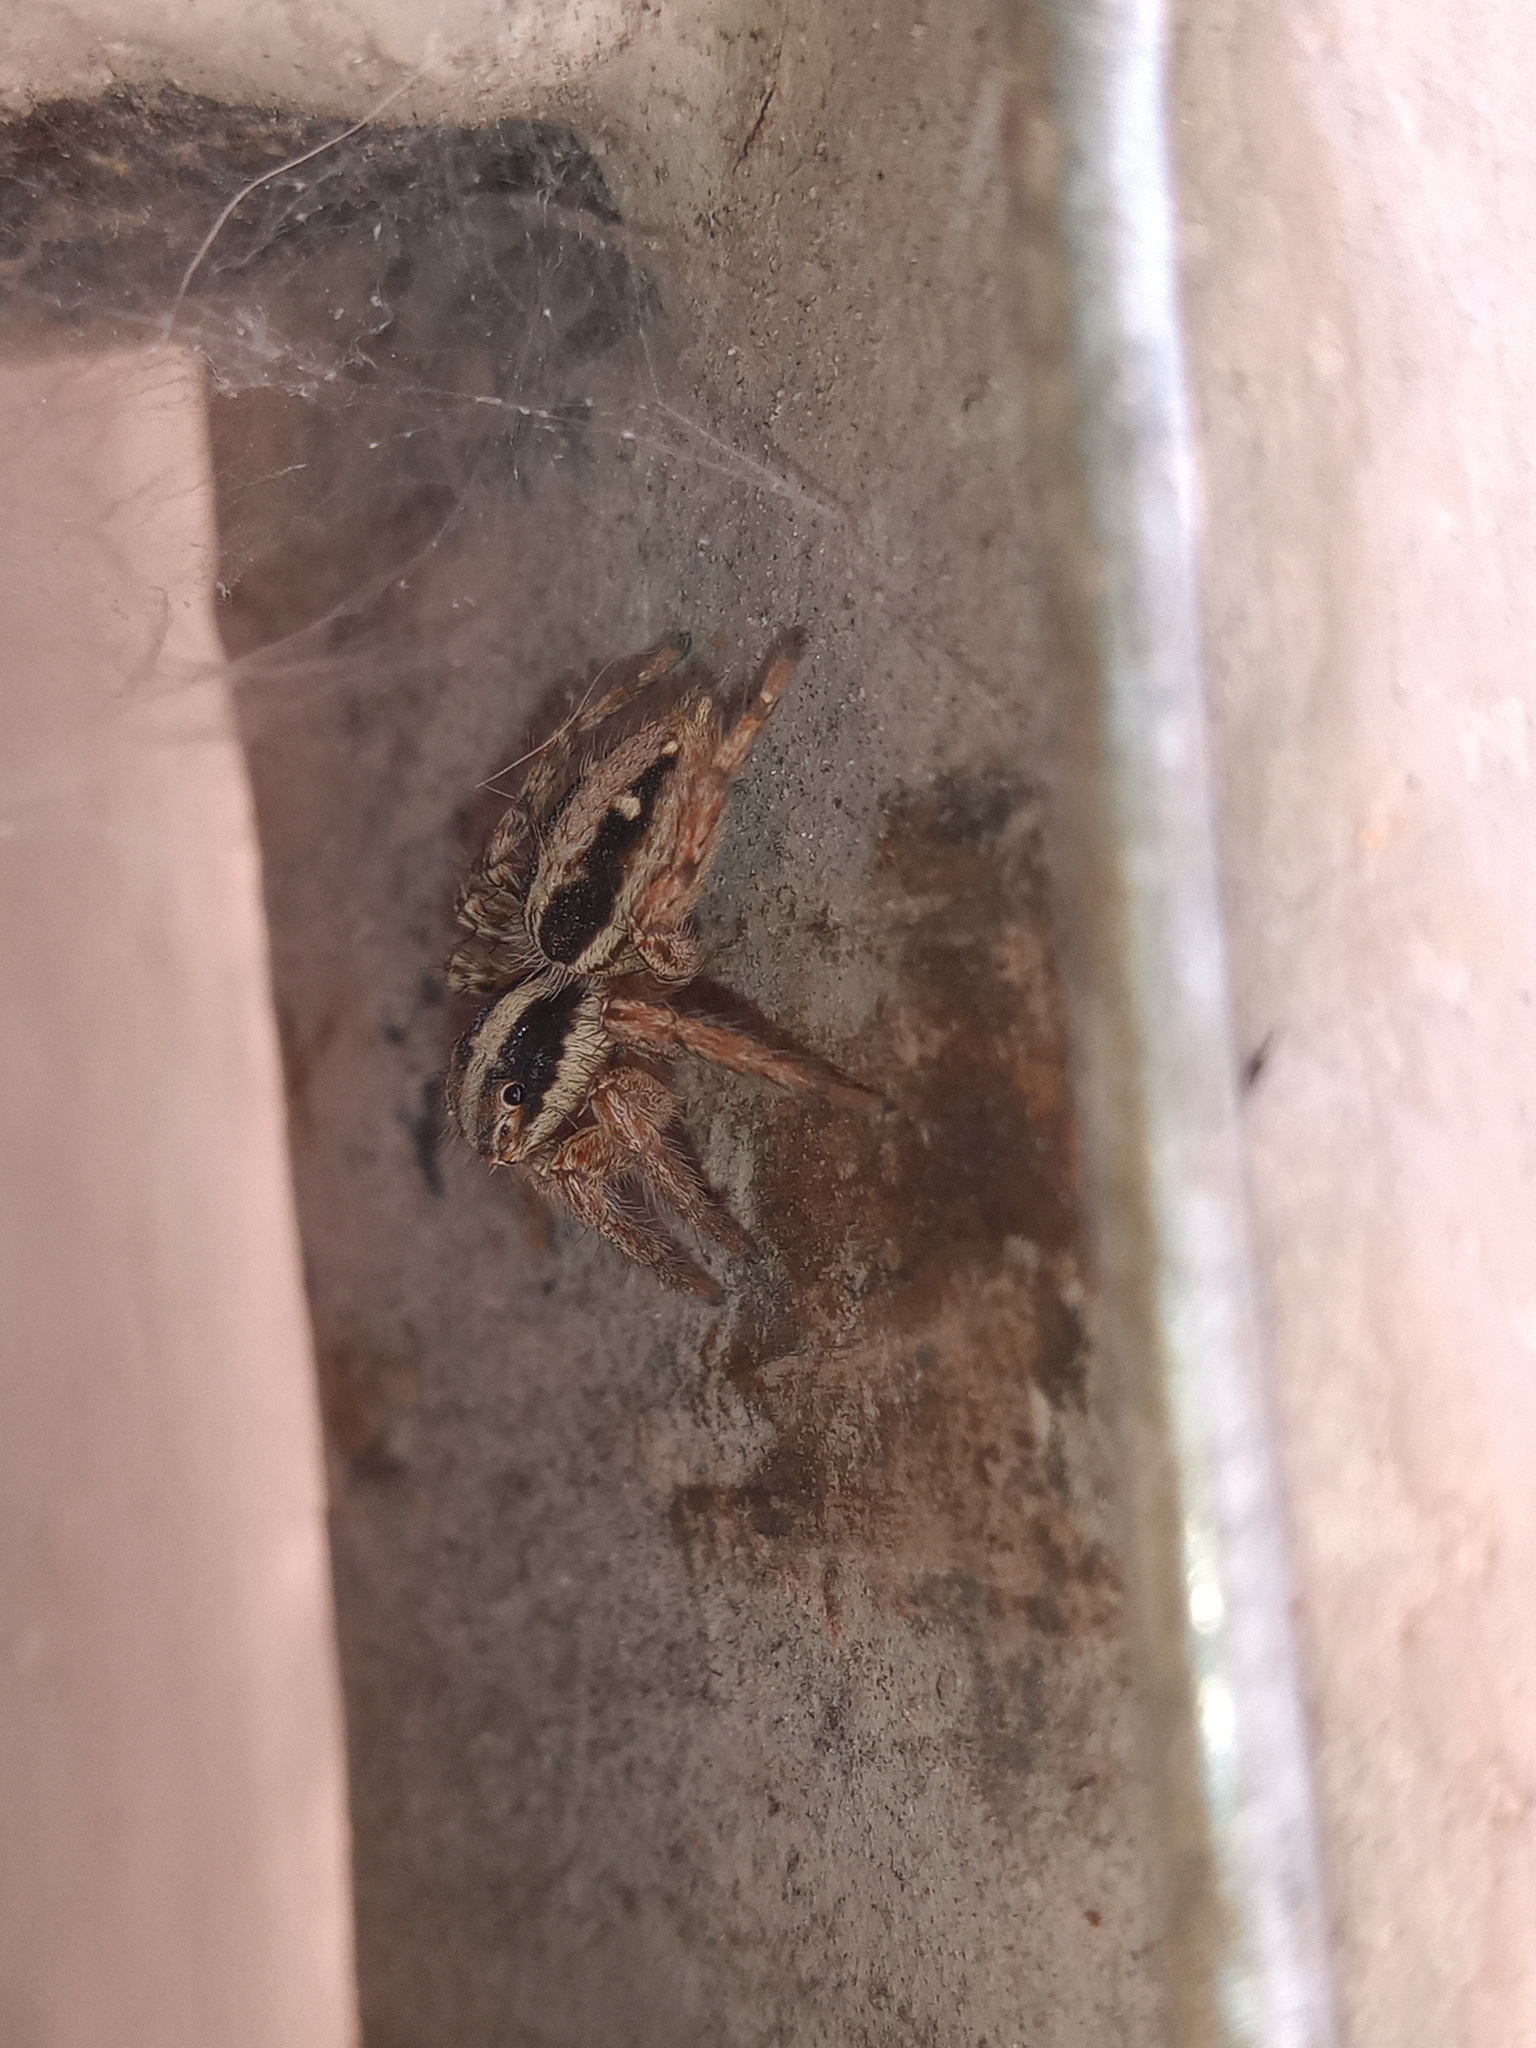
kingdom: Animalia
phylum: Arthropoda
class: Arachnida
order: Araneae
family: Salticidae
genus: Plexippus
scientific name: Plexippus paykulli
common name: Pantropical jumper
